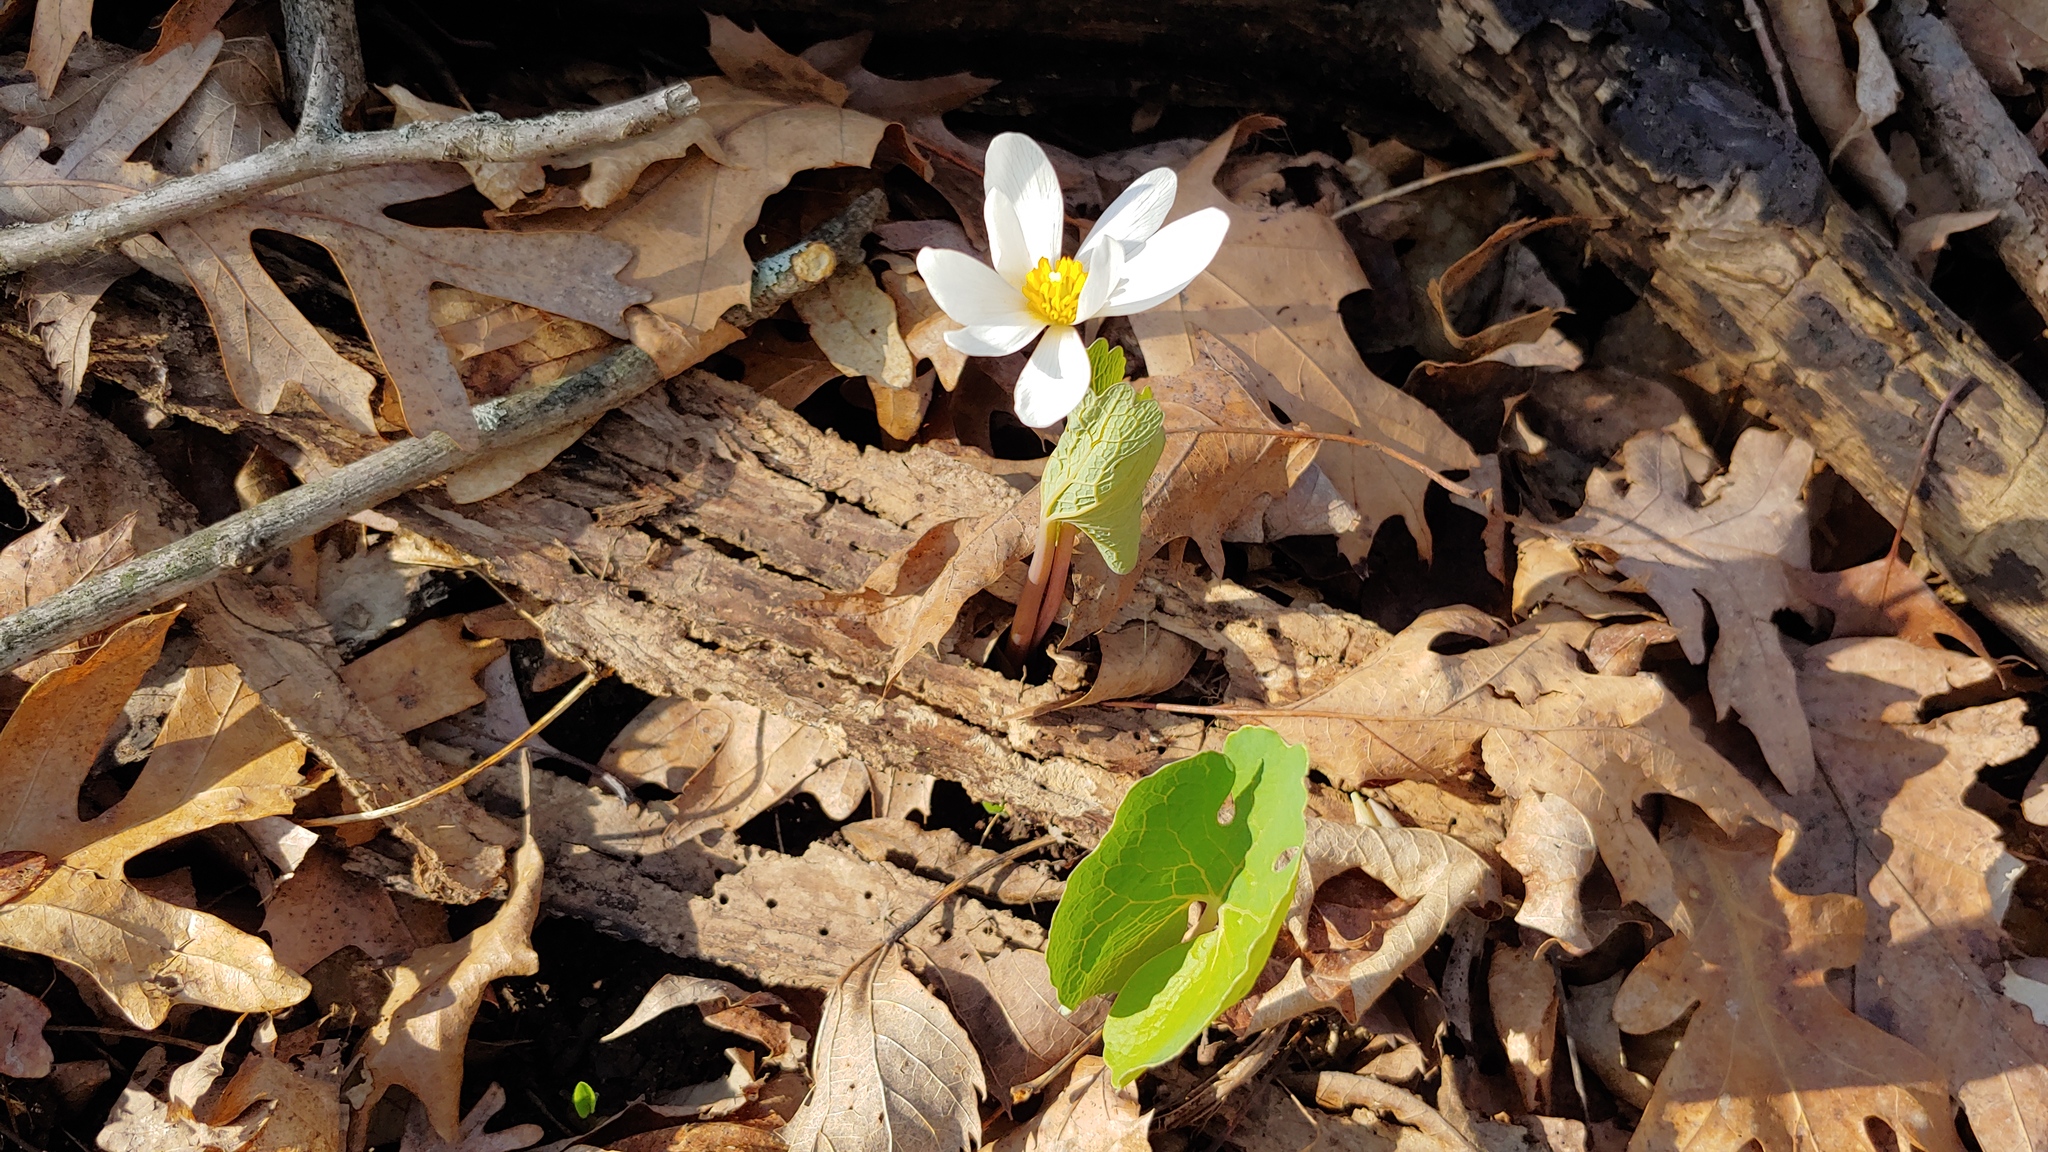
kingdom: Plantae
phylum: Tracheophyta
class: Magnoliopsida
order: Ranunculales
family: Papaveraceae
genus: Sanguinaria
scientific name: Sanguinaria canadensis
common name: Bloodroot
